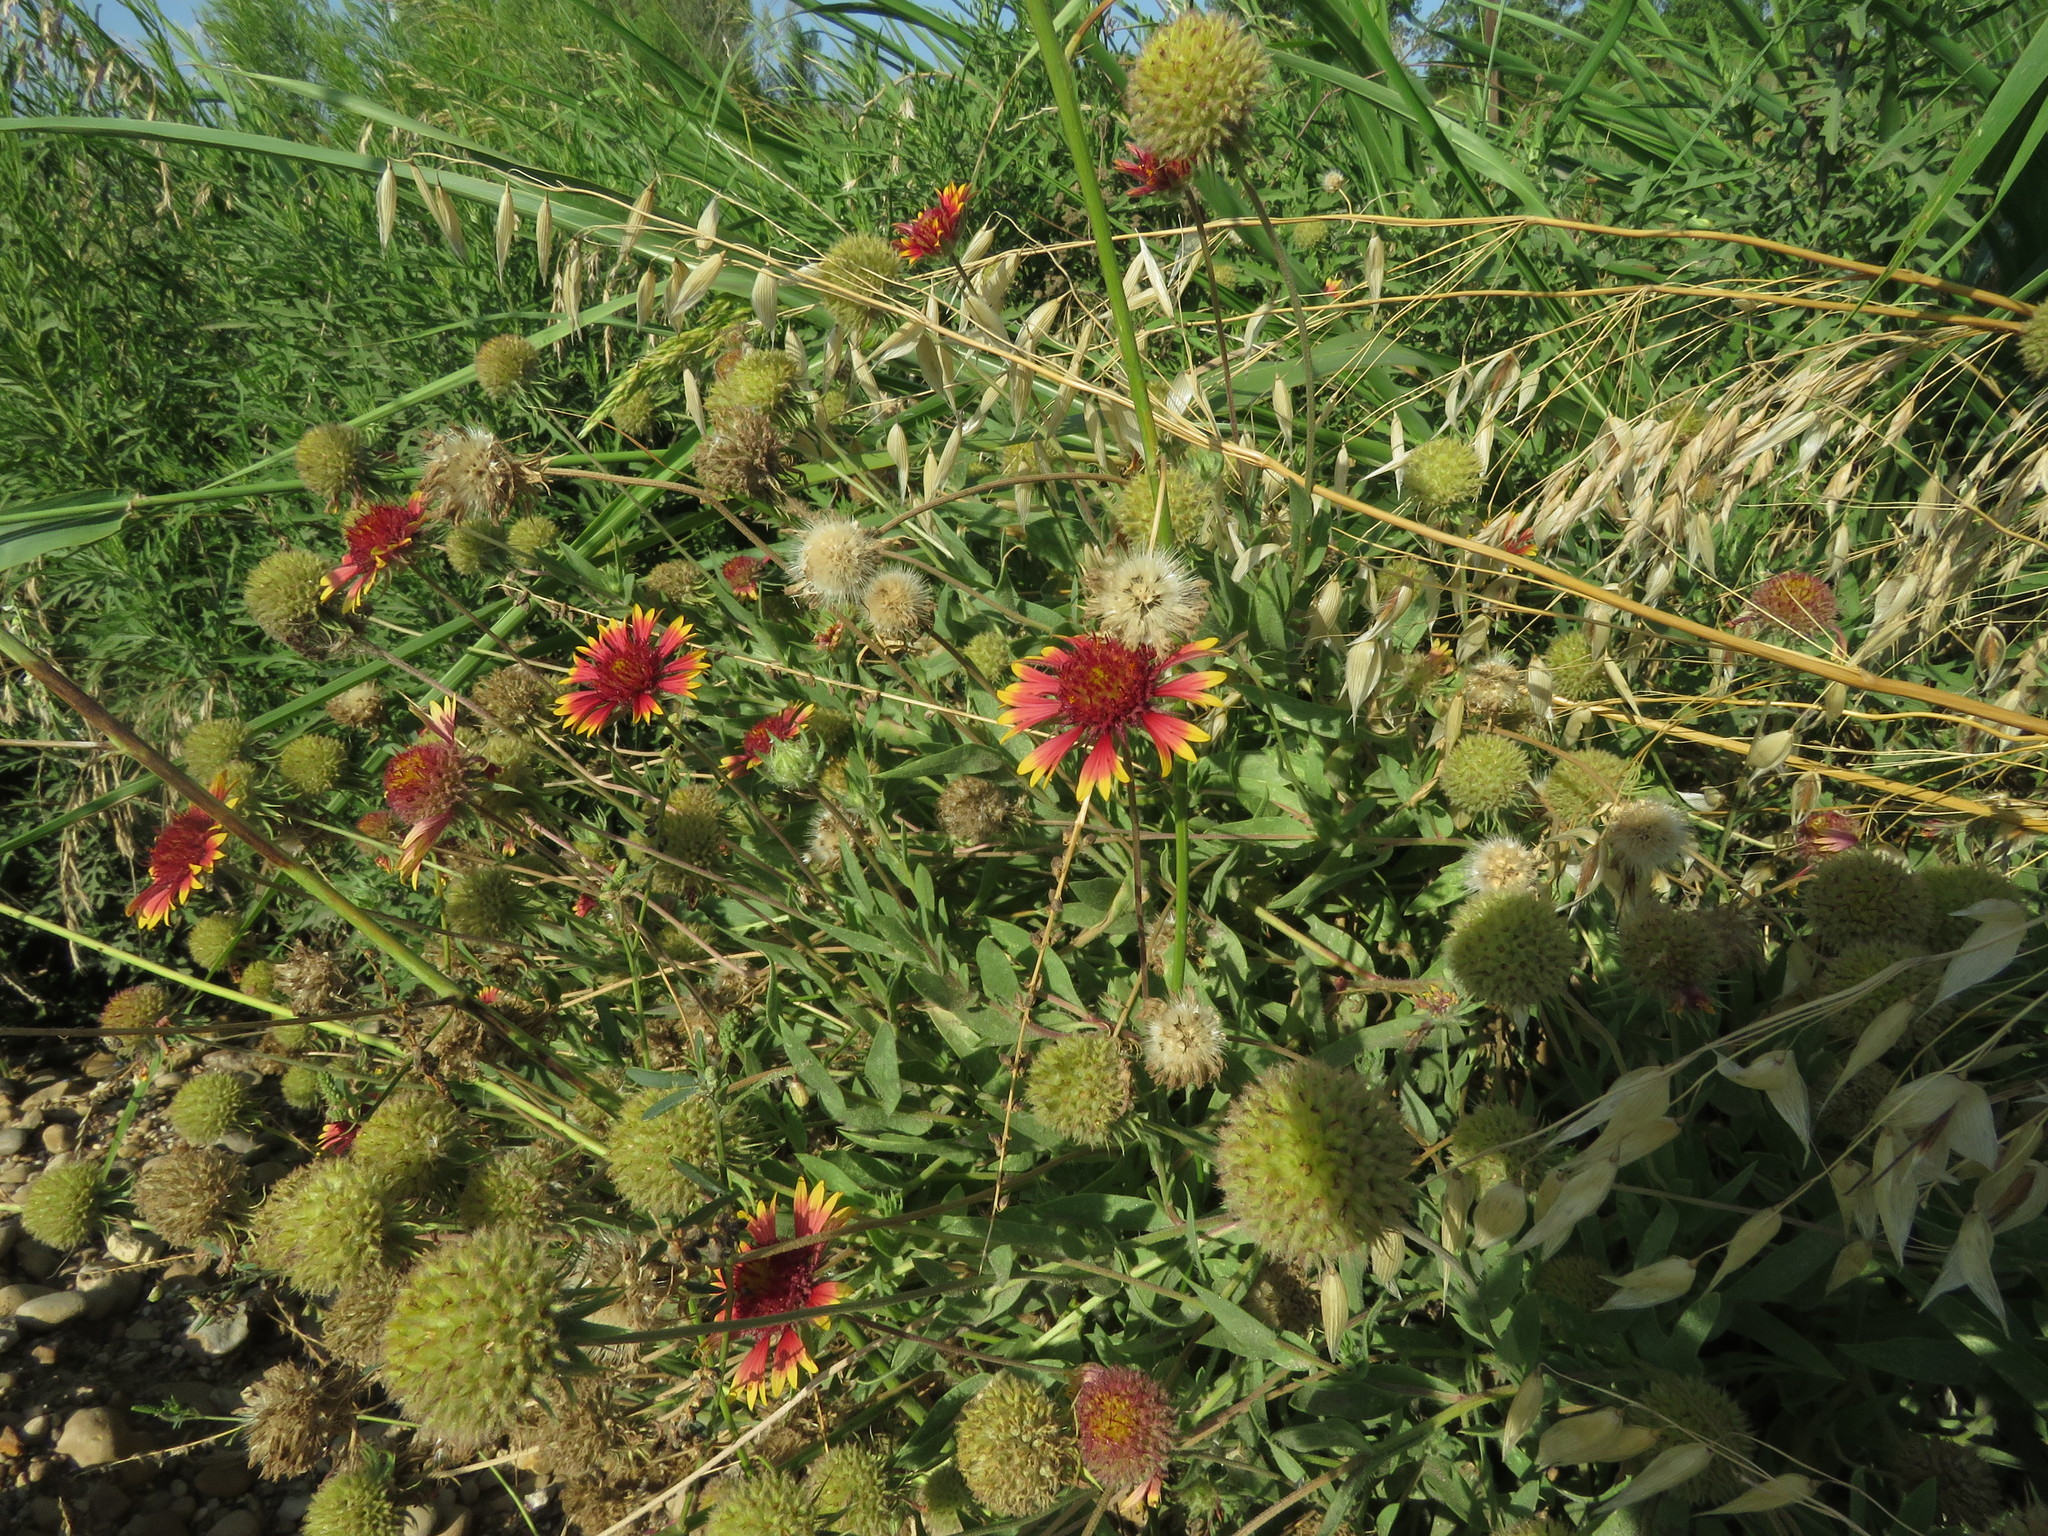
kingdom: Plantae
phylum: Tracheophyta
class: Magnoliopsida
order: Asterales
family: Asteraceae
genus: Gaillardia
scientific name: Gaillardia pulchella
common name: Firewheel
